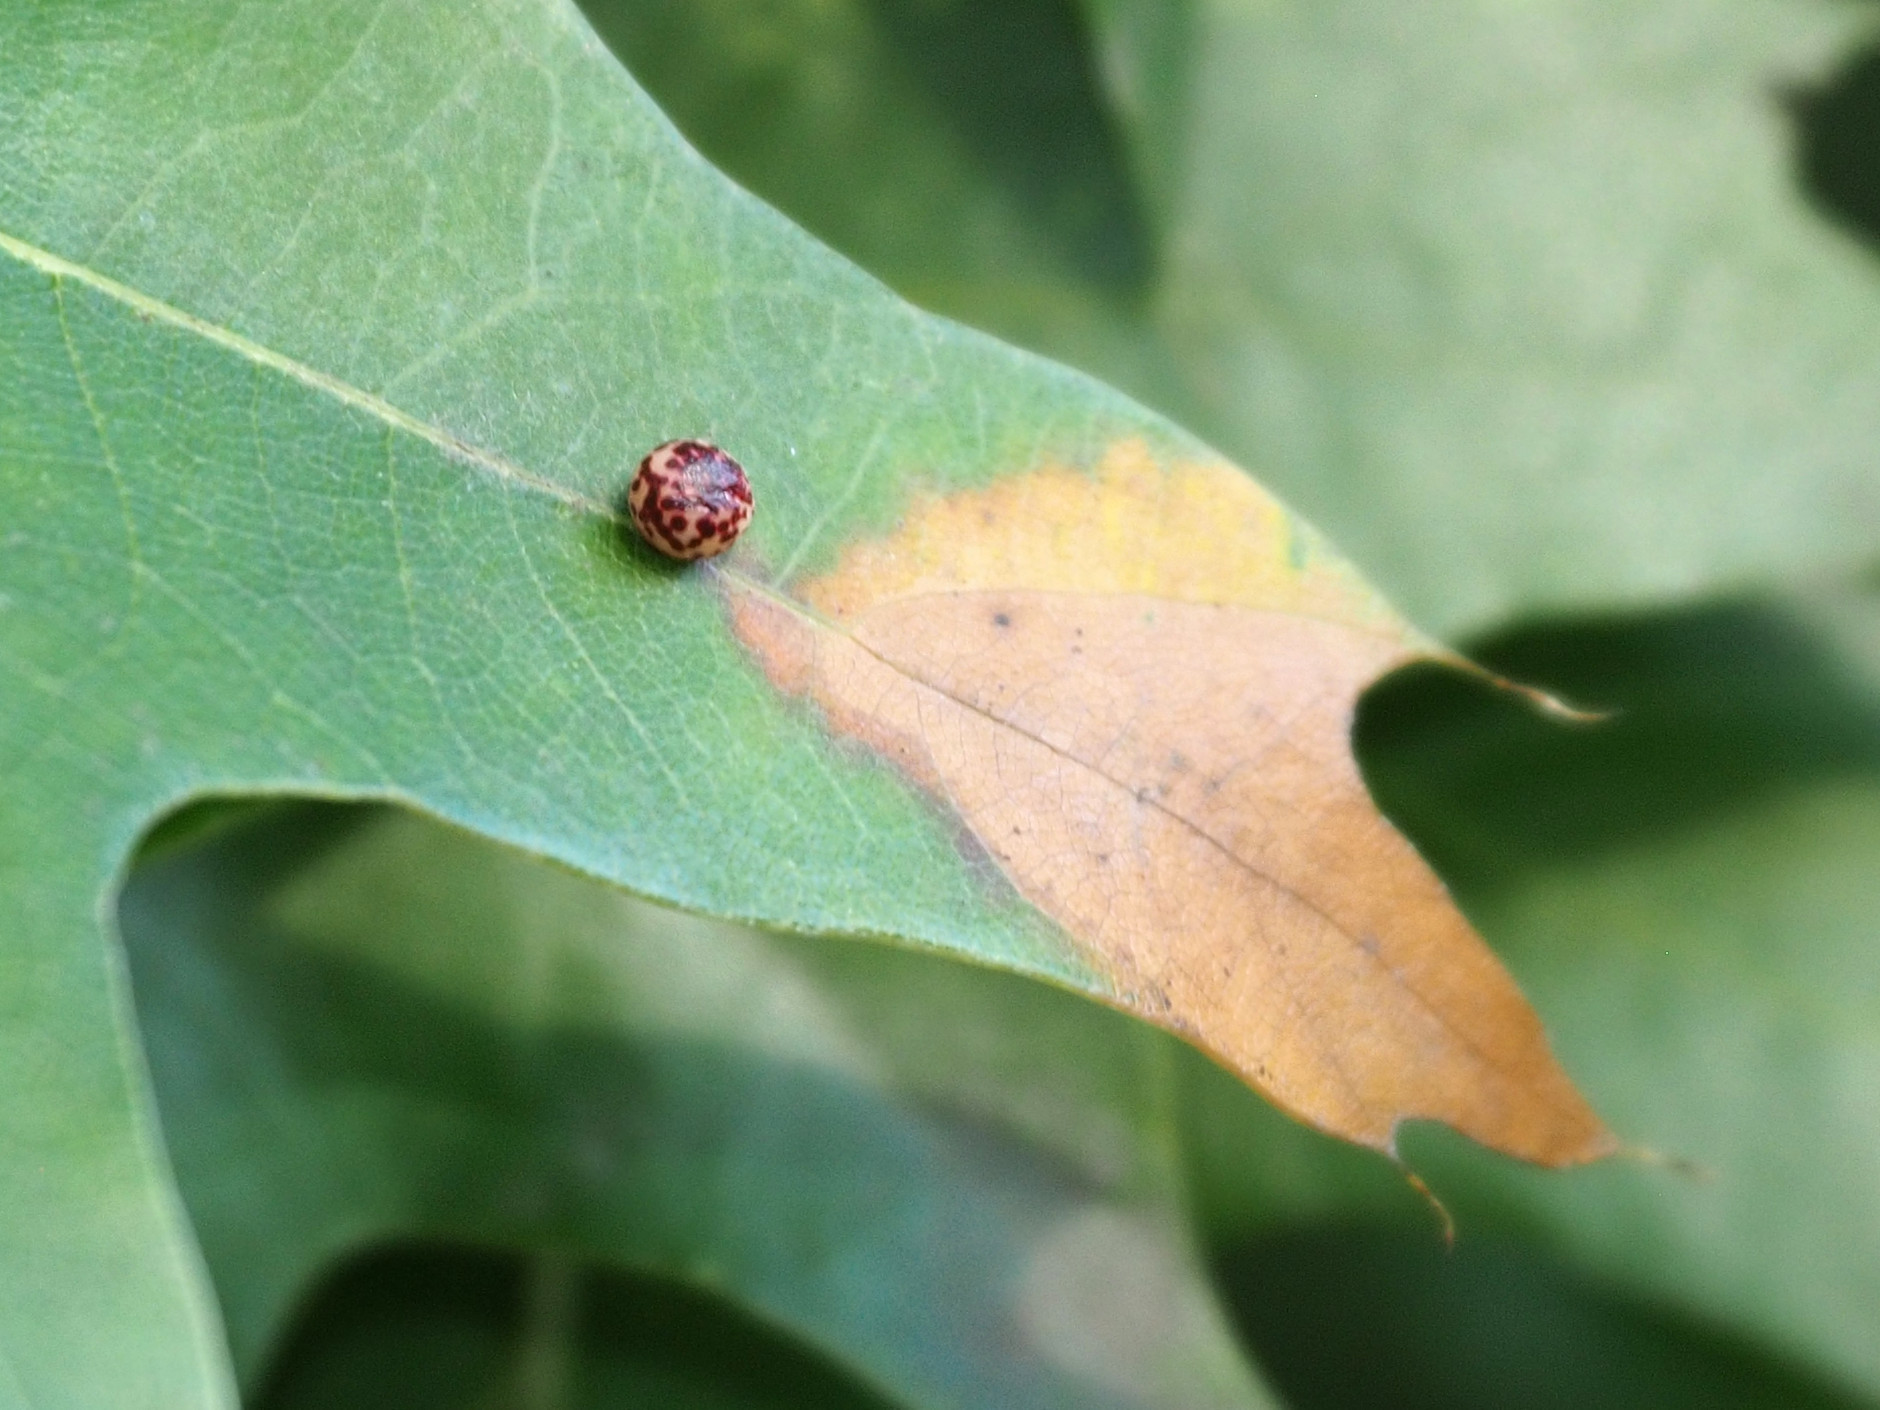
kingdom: Animalia
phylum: Arthropoda
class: Insecta
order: Hymenoptera
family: Cynipidae
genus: Zopheroteras
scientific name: Zopheroteras
